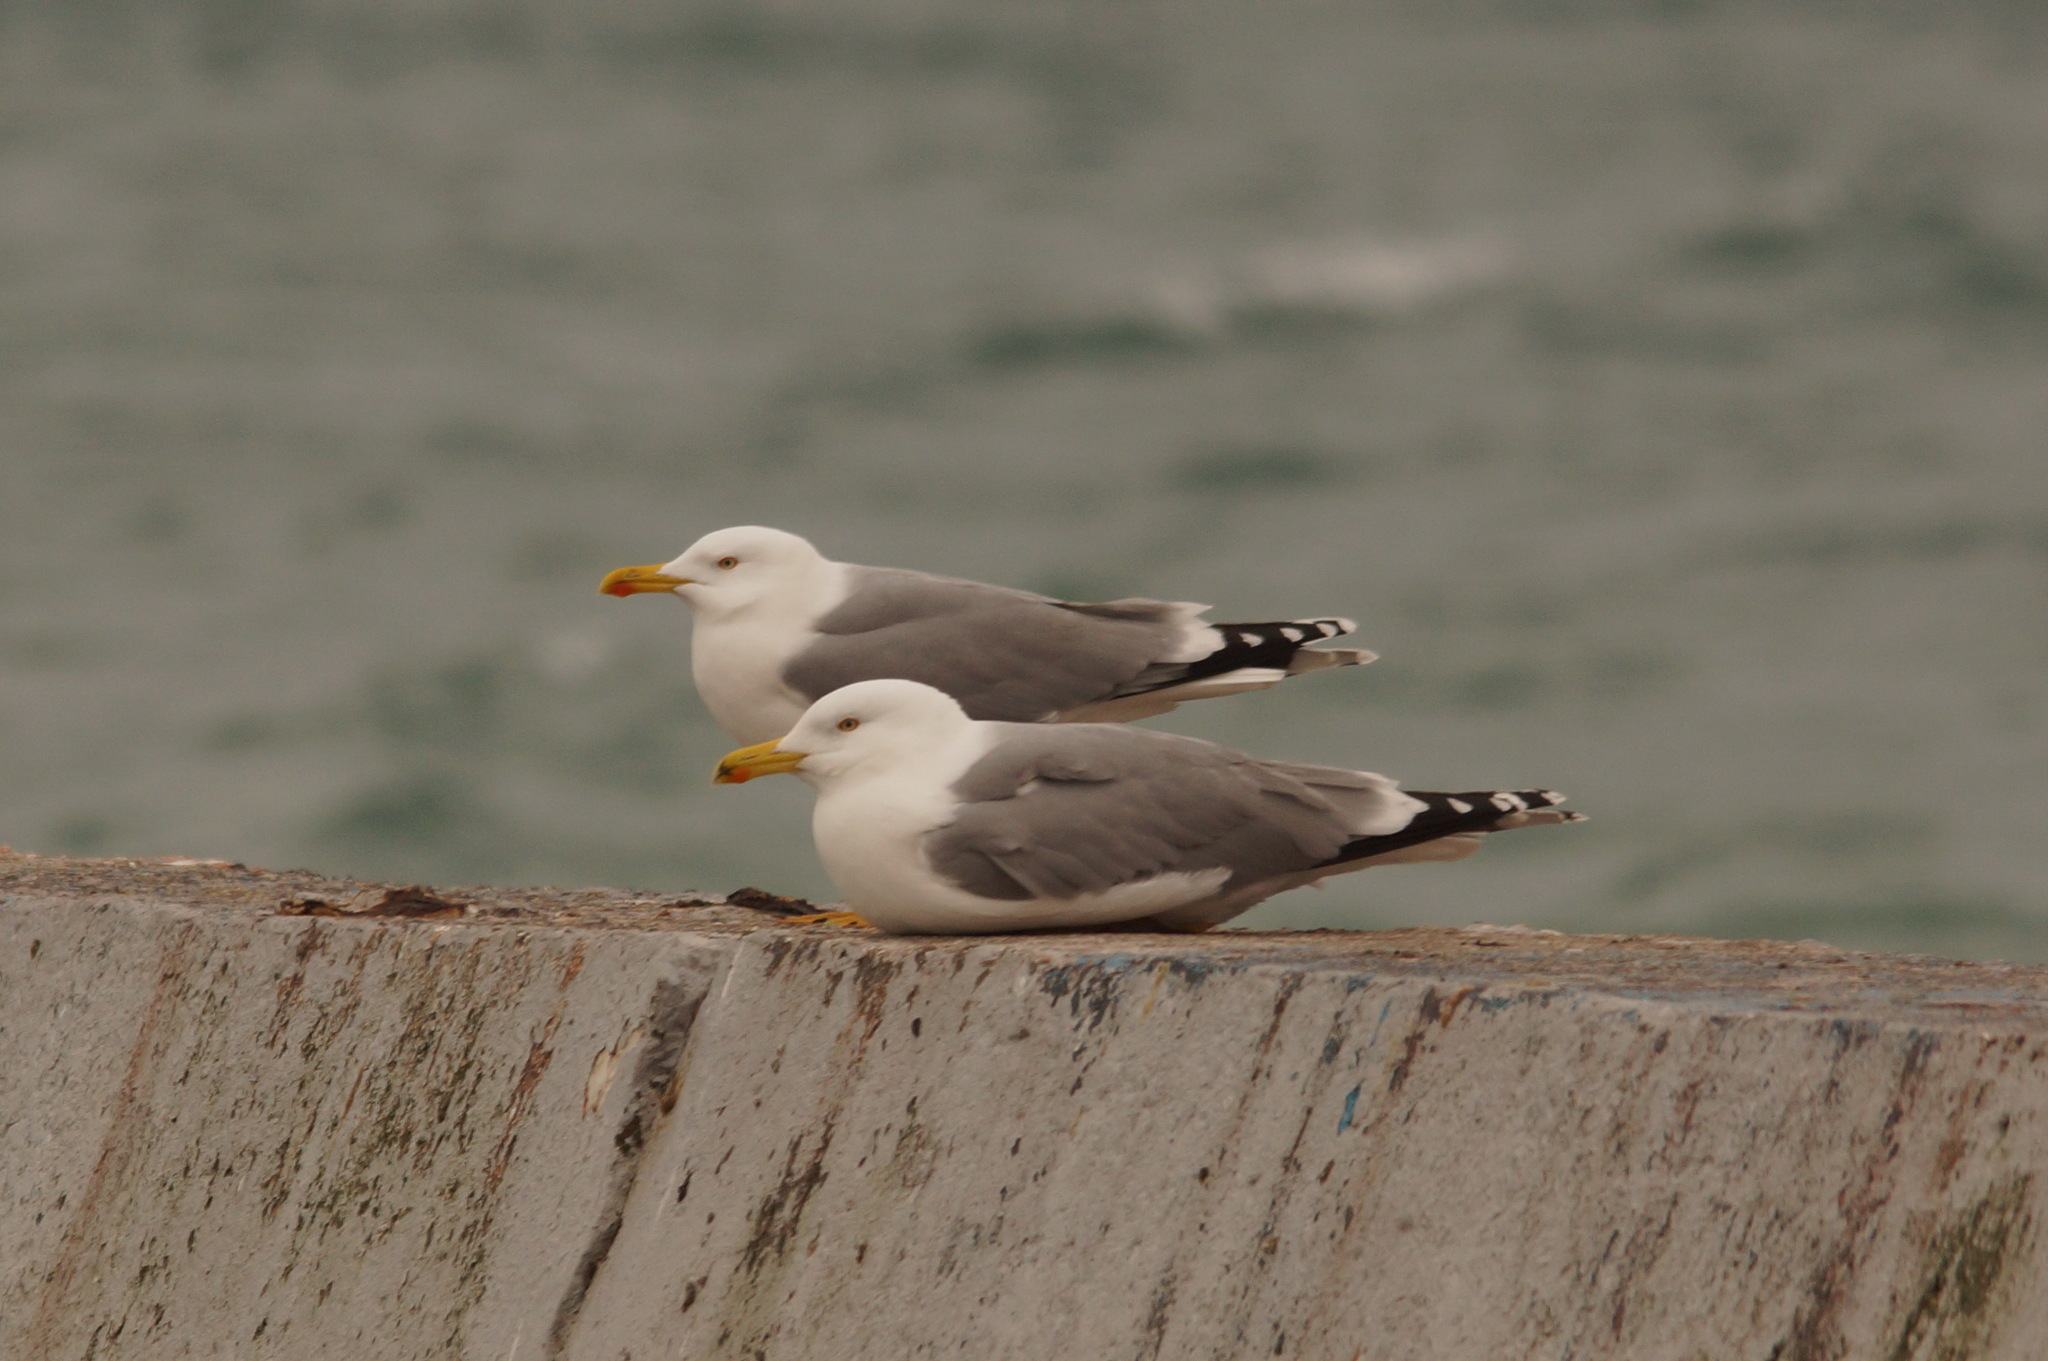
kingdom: Animalia
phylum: Chordata
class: Aves
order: Charadriiformes
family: Laridae
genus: Larus
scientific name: Larus michahellis
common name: Yellow-legged gull
